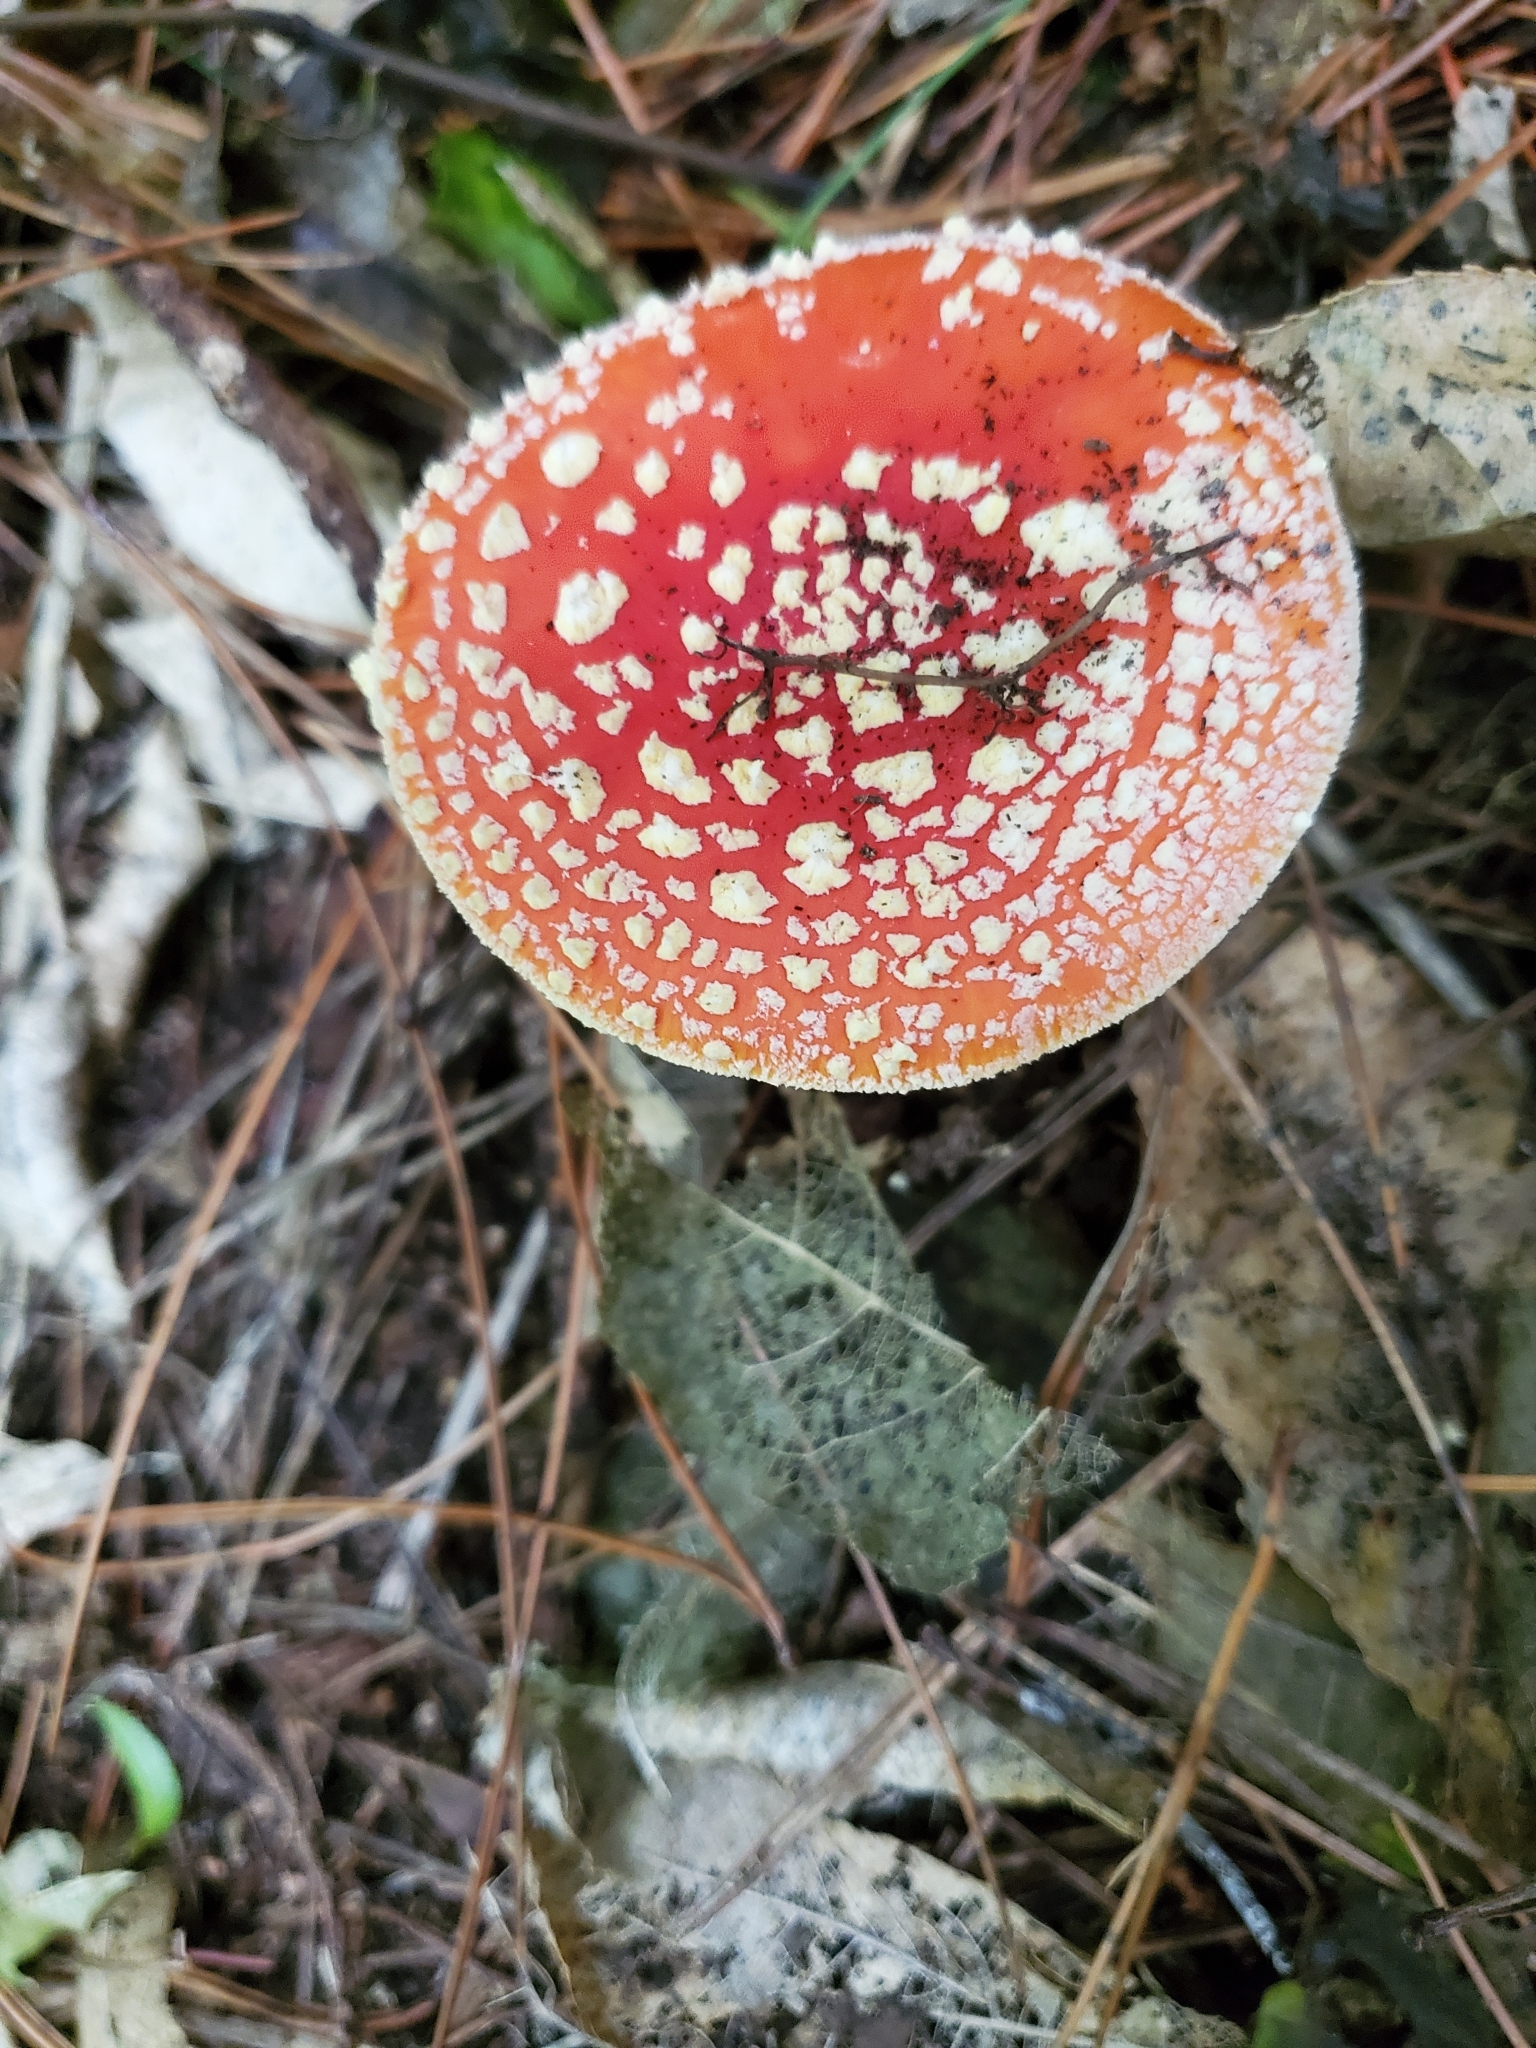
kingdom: Fungi
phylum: Basidiomycota
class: Agaricomycetes
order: Agaricales
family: Amanitaceae
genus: Amanita
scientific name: Amanita muscaria
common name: Fly agaric
